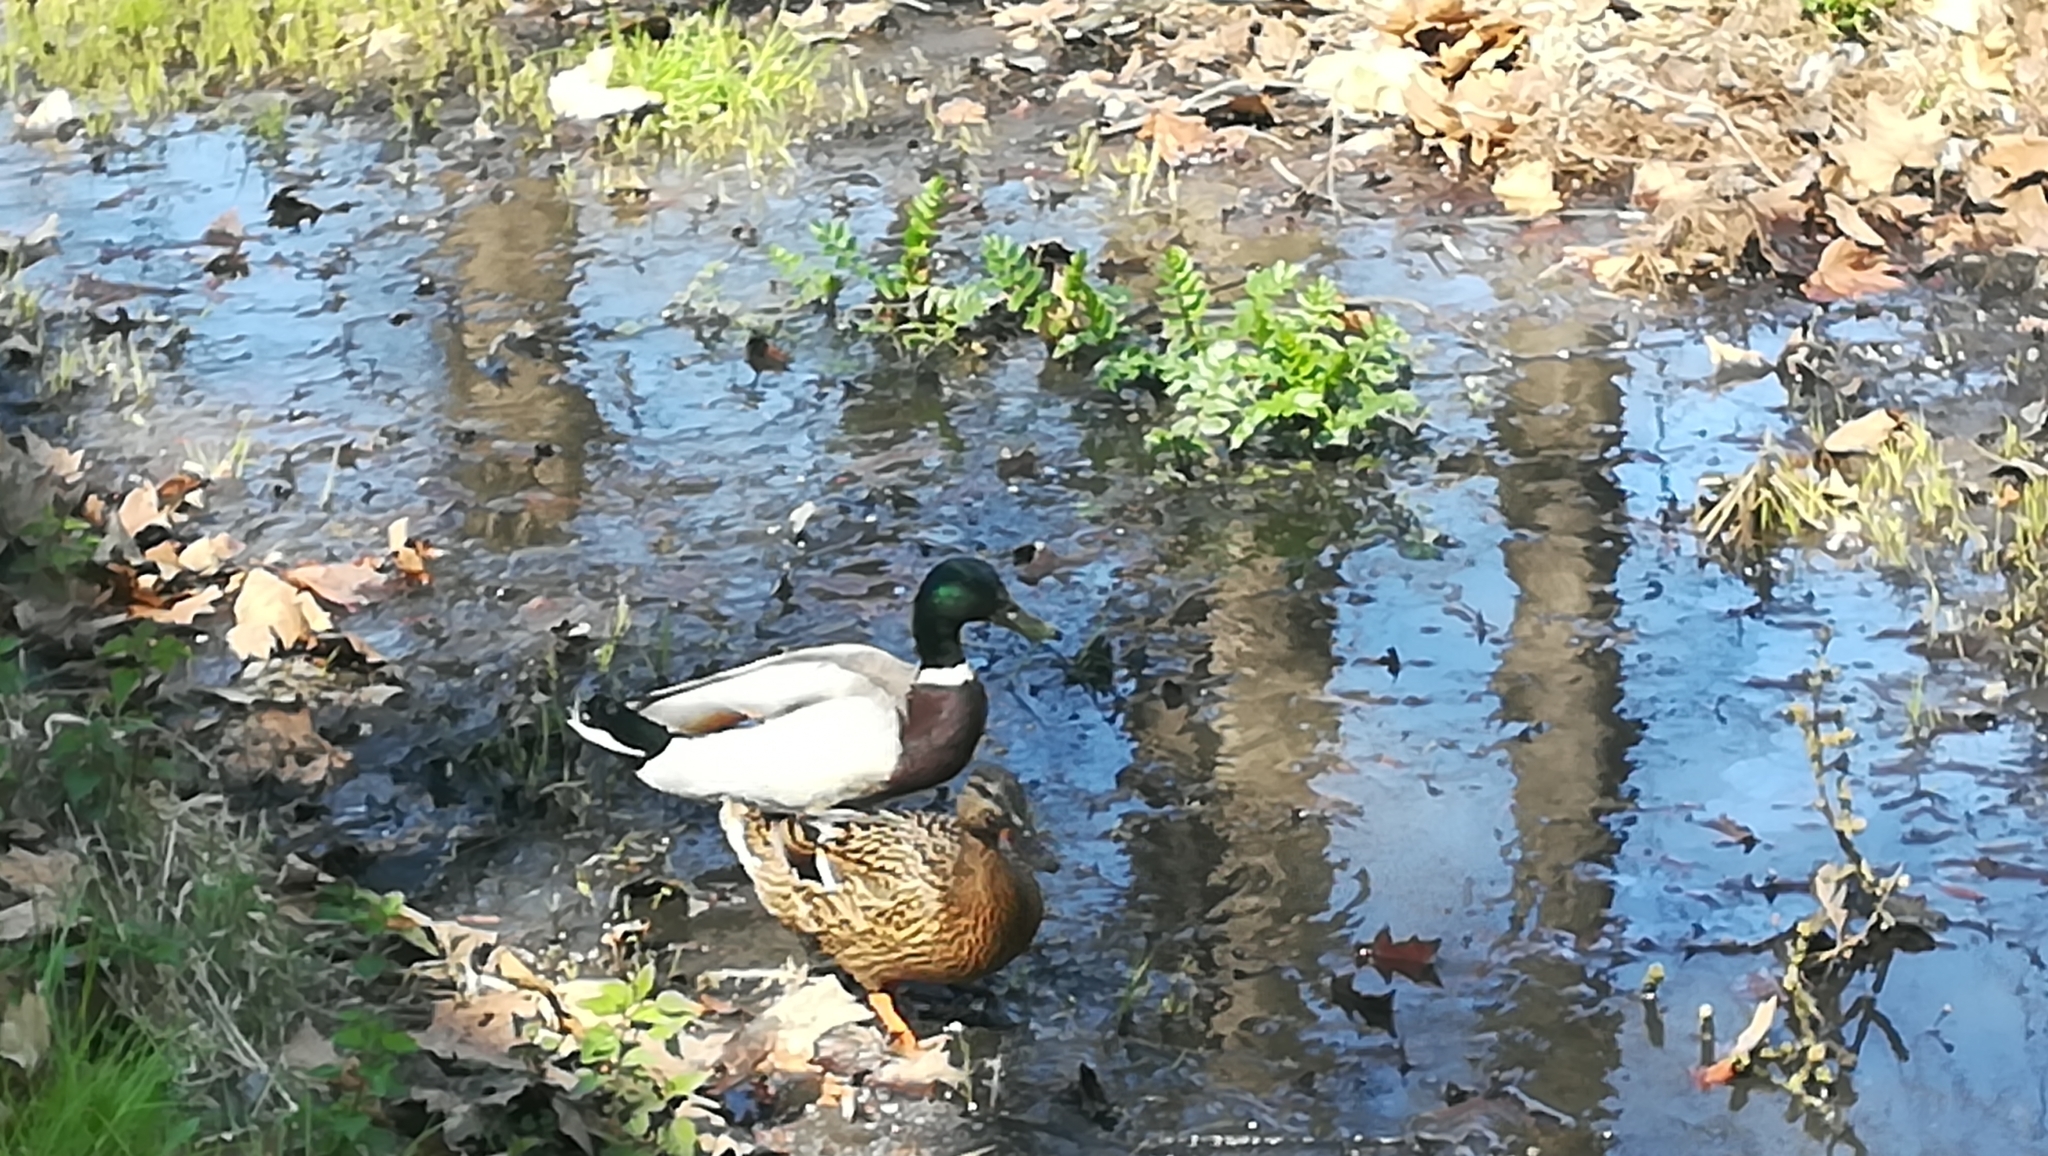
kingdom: Animalia
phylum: Chordata
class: Aves
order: Anseriformes
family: Anatidae
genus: Anas
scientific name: Anas platyrhynchos
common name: Mallard
